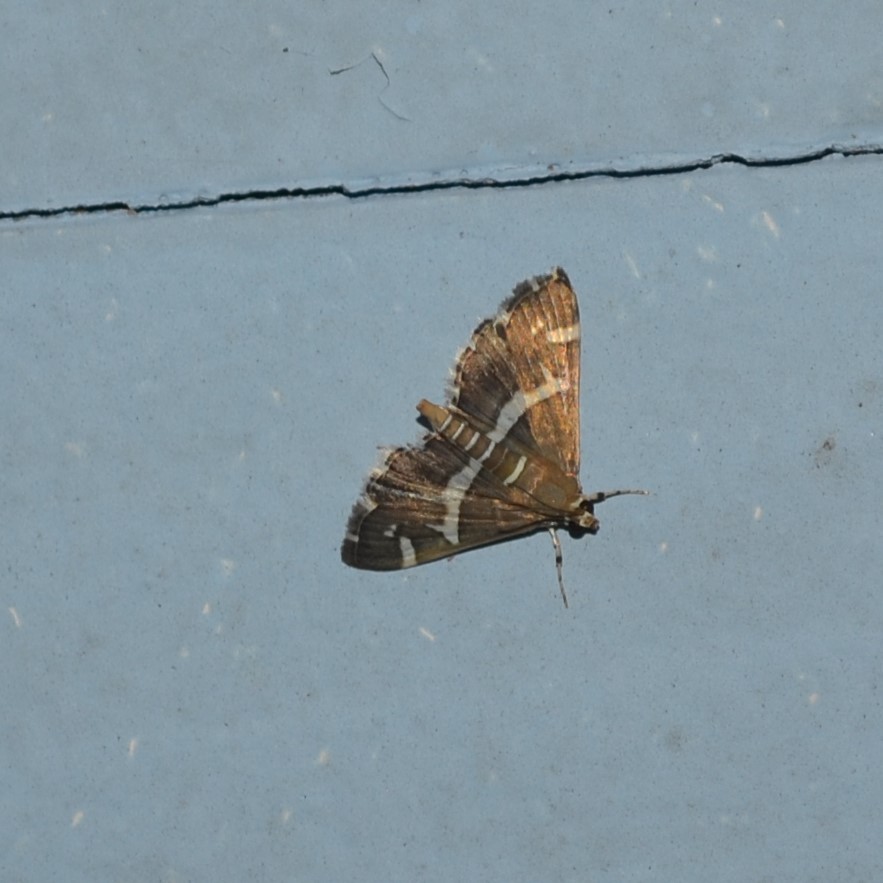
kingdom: Animalia
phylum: Arthropoda
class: Insecta
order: Lepidoptera
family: Crambidae
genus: Spoladea
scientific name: Spoladea recurvalis
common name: Beet webworm moth
